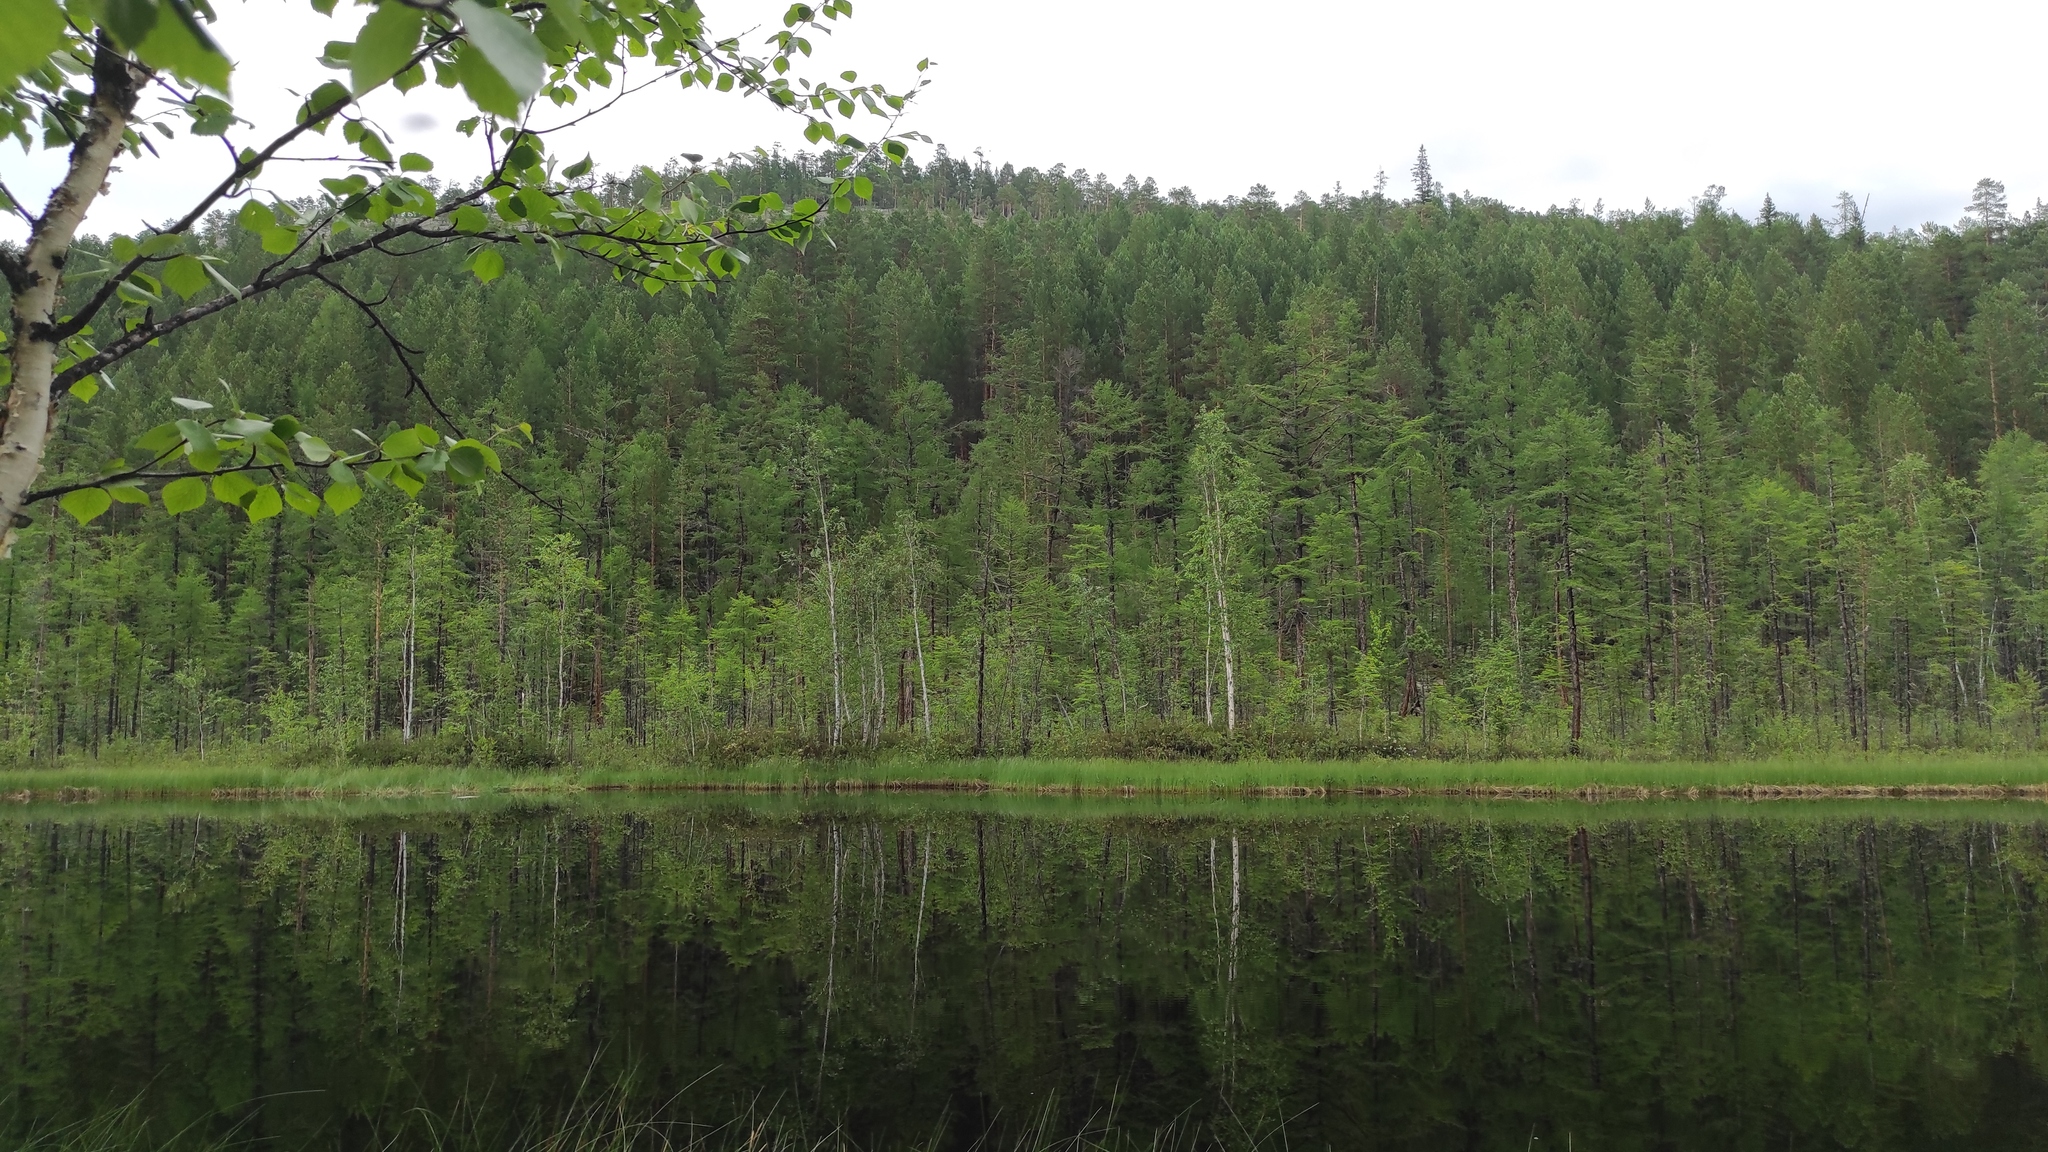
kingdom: Plantae
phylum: Tracheophyta
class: Pinopsida
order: Pinales
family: Pinaceae
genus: Larix
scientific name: Larix gmelinii
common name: Dahurian larch
